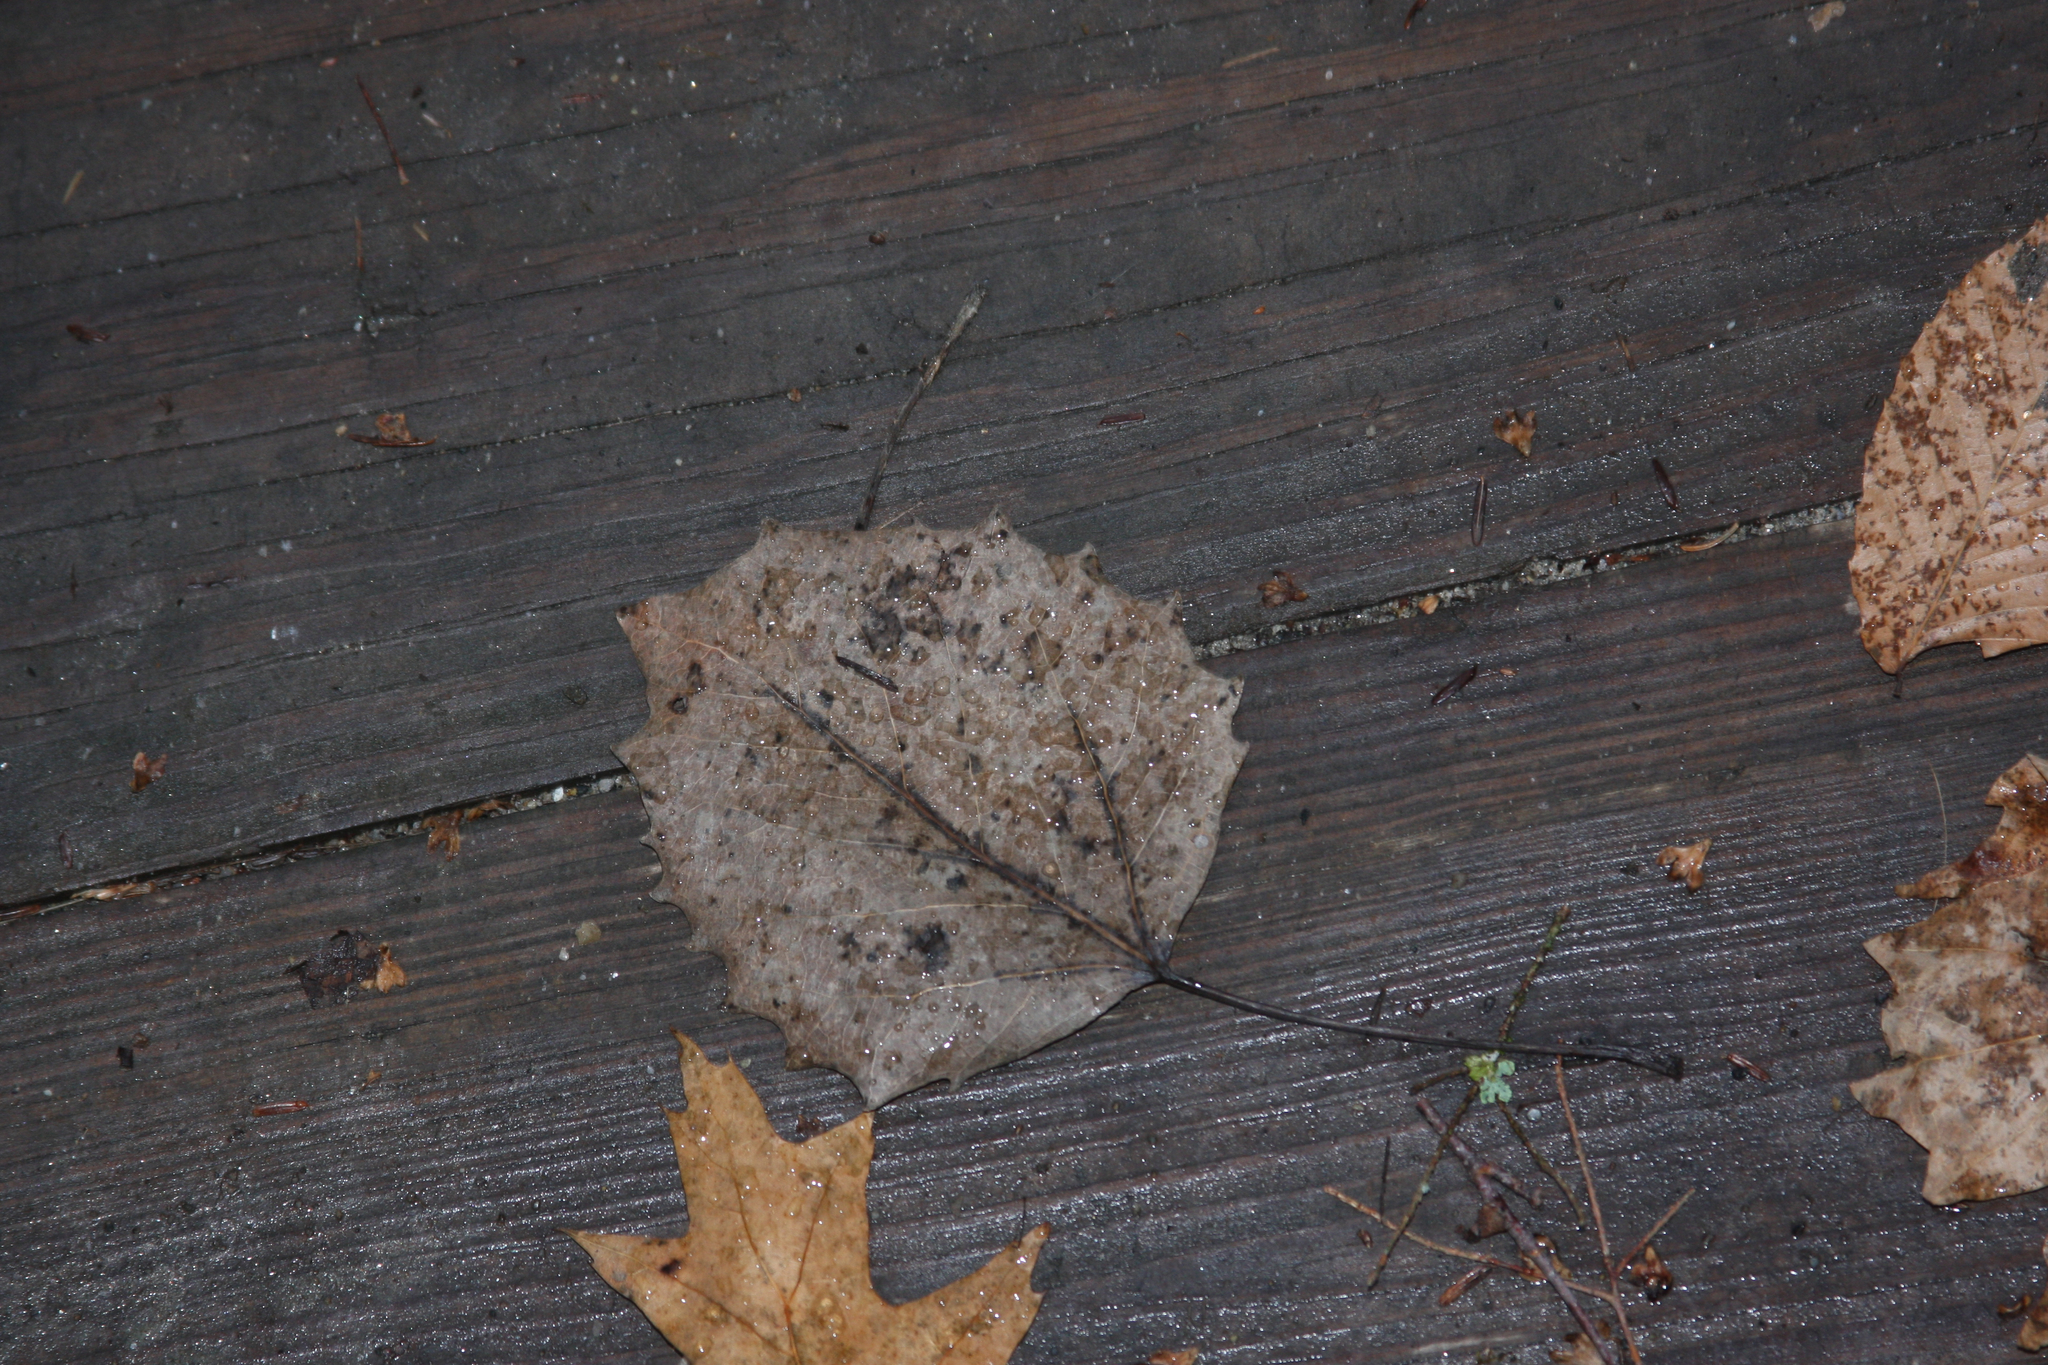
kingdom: Plantae
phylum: Tracheophyta
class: Magnoliopsida
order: Malpighiales
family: Salicaceae
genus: Populus
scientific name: Populus grandidentata
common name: Bigtooth aspen
